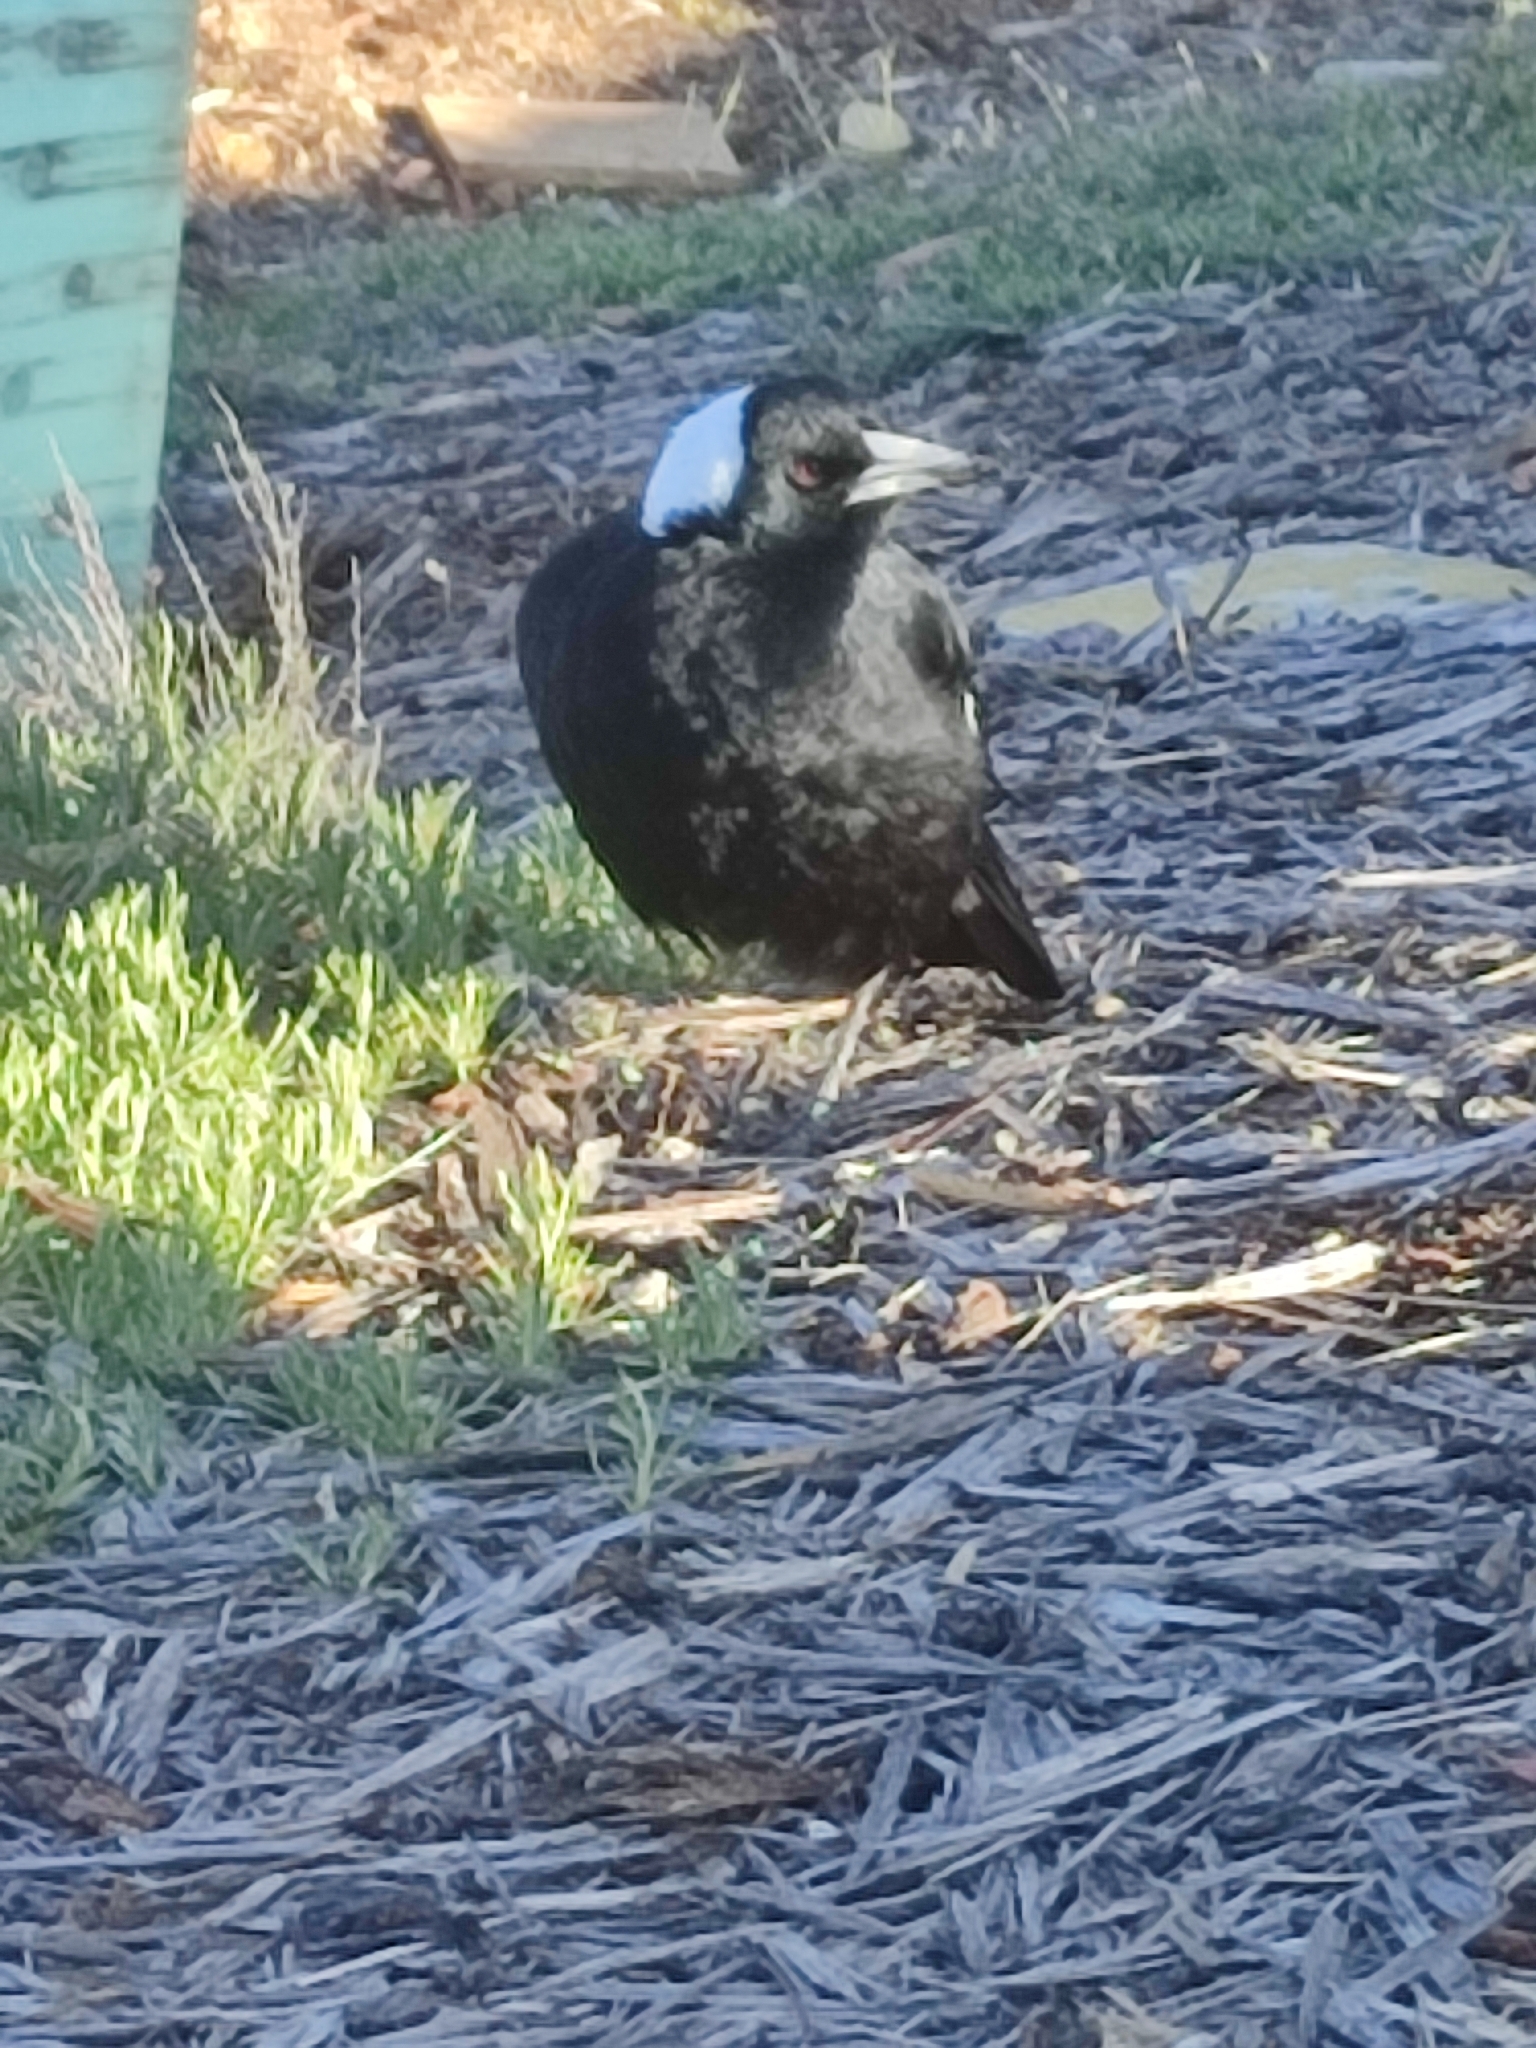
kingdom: Animalia
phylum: Chordata
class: Aves
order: Passeriformes
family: Cracticidae
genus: Gymnorhina
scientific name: Gymnorhina tibicen
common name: Australian magpie
